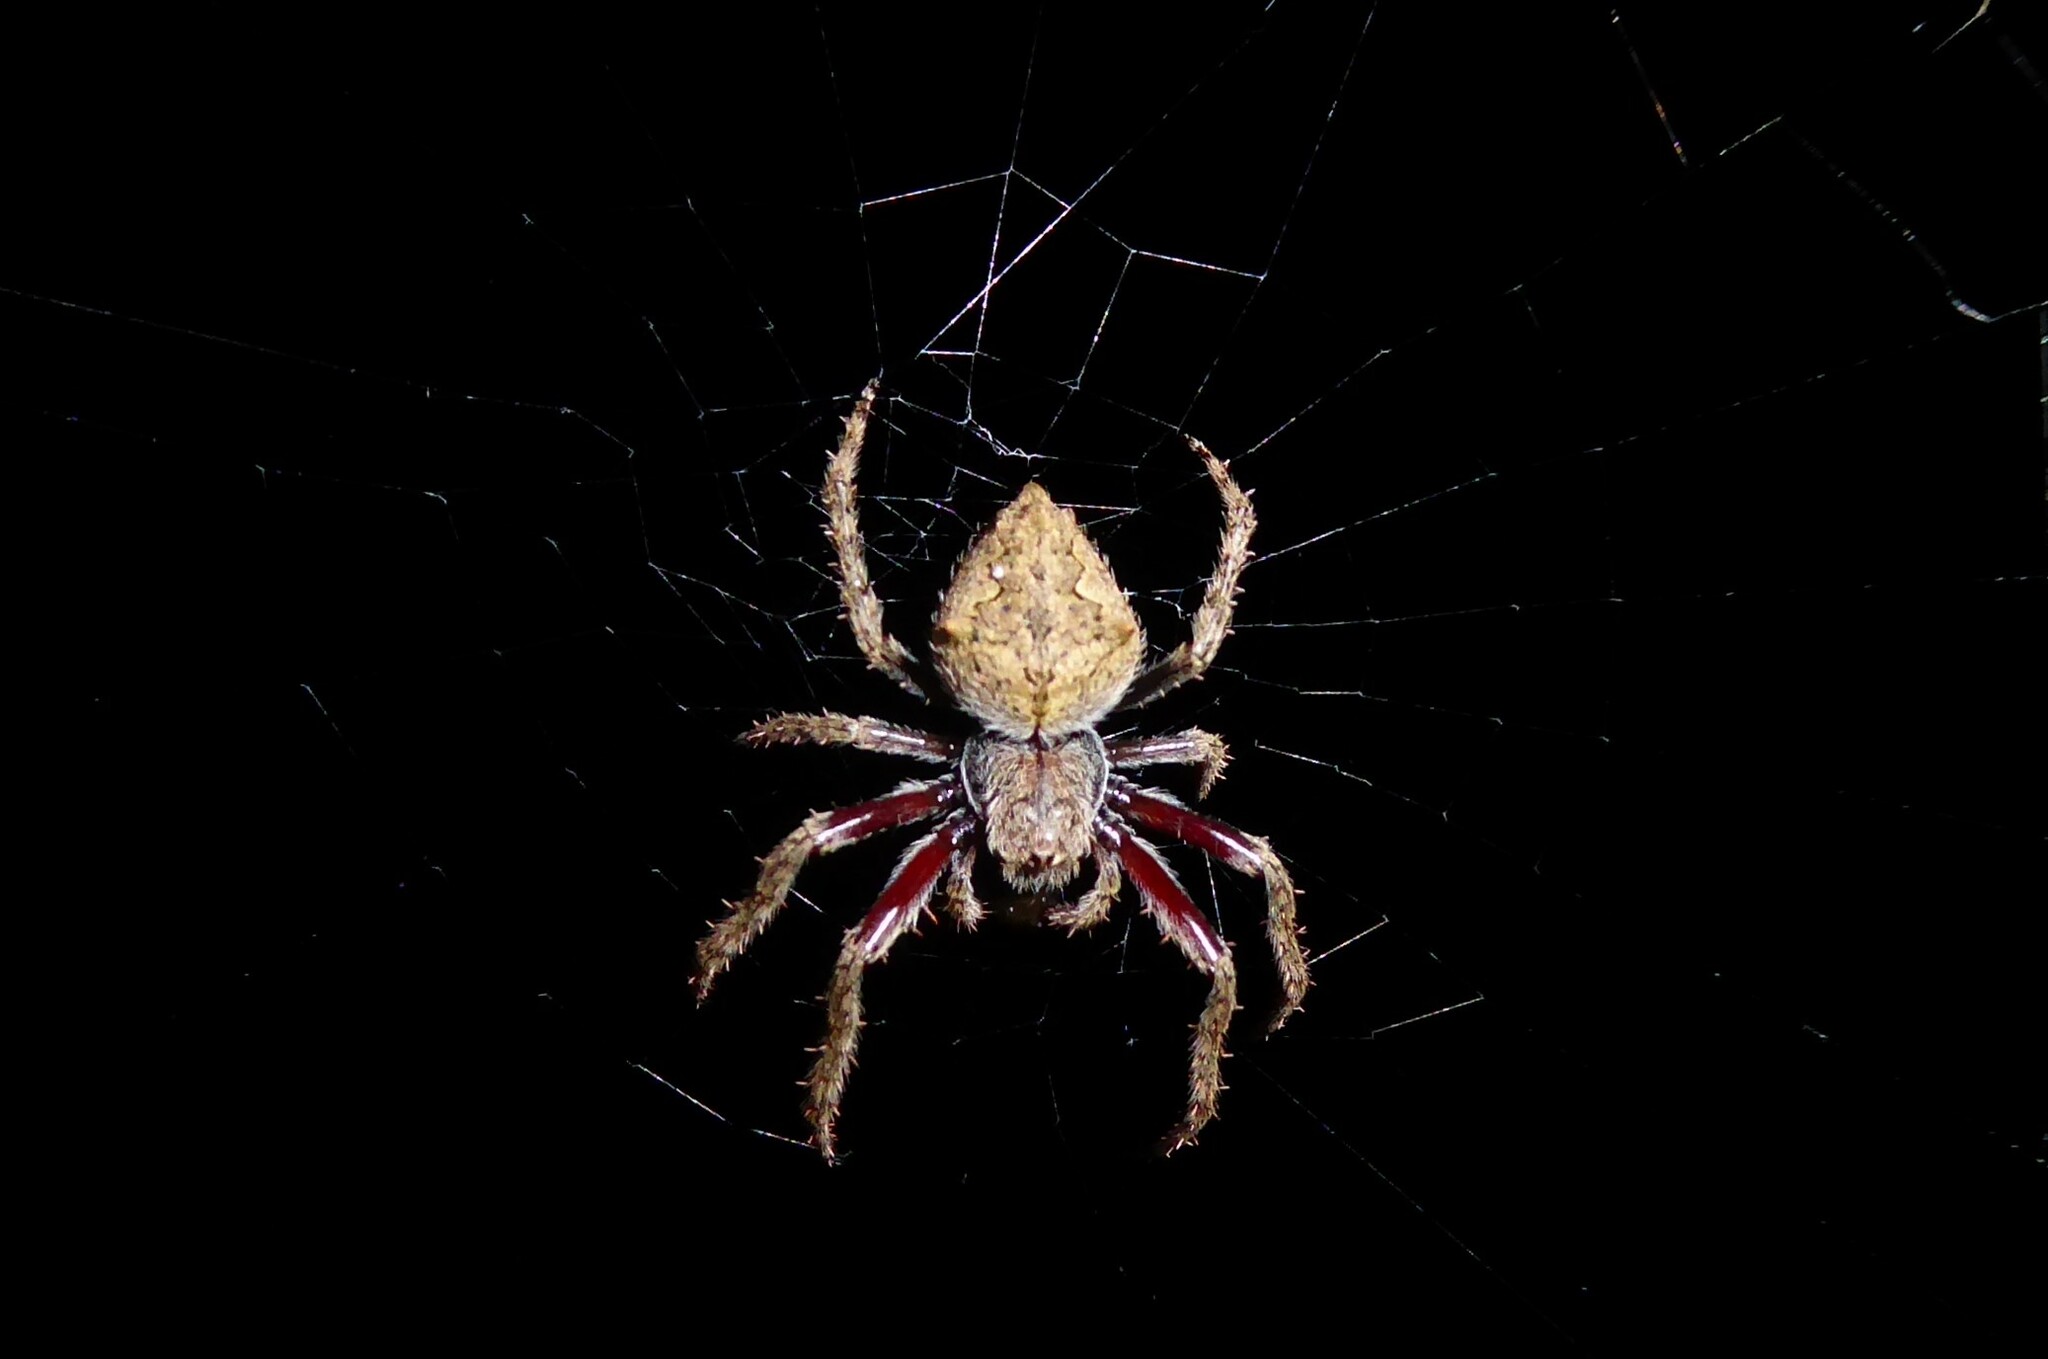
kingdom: Animalia
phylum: Arthropoda
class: Arachnida
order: Araneae
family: Araneidae
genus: Eriophora
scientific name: Eriophora pustulosa
